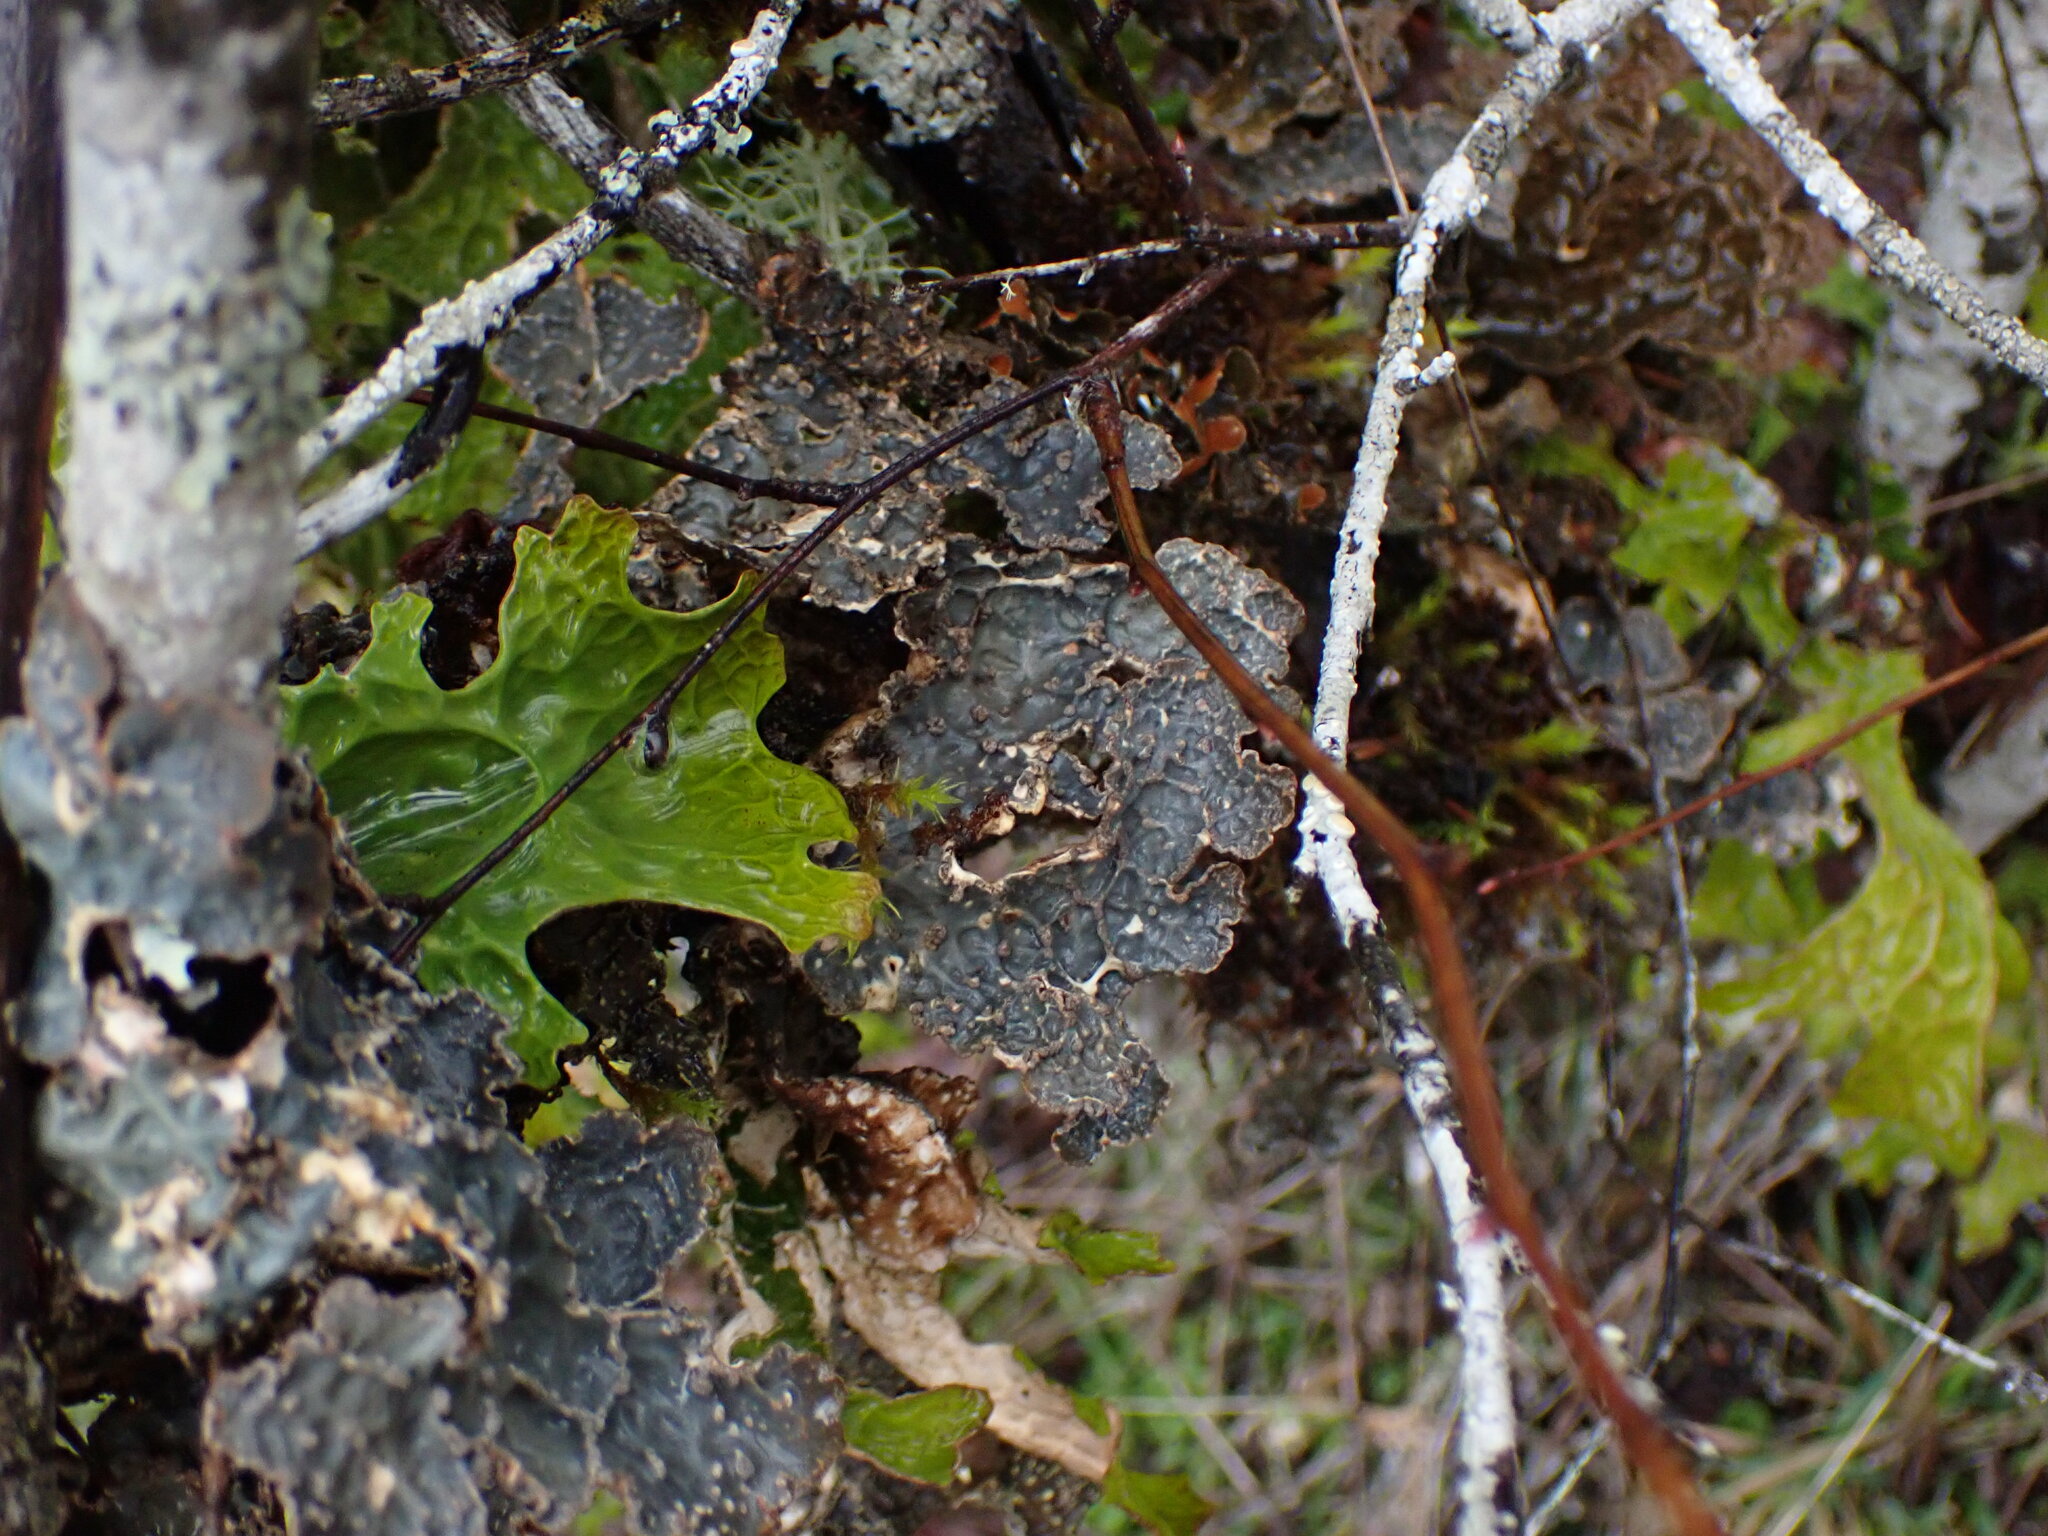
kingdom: Fungi
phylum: Ascomycota
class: Lecanoromycetes
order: Peltigerales
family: Lobariaceae
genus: Lobarina
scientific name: Lobarina scrobiculata
